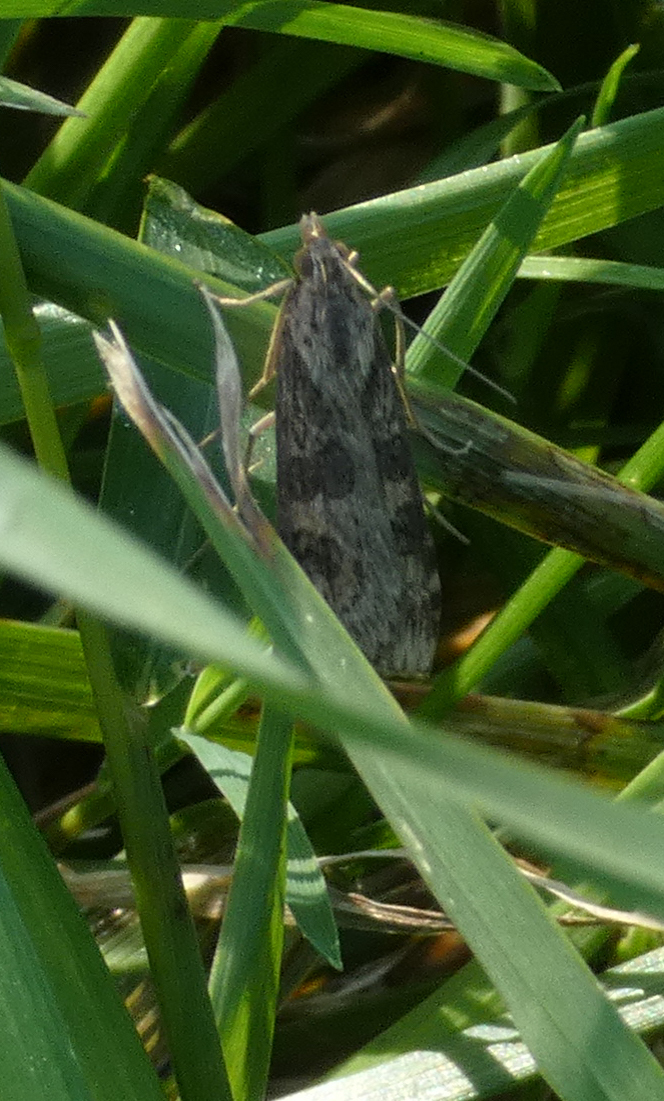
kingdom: Animalia
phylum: Arthropoda
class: Insecta
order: Lepidoptera
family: Crambidae
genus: Nomophila
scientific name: Nomophila nearctica
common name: American rush veneer
